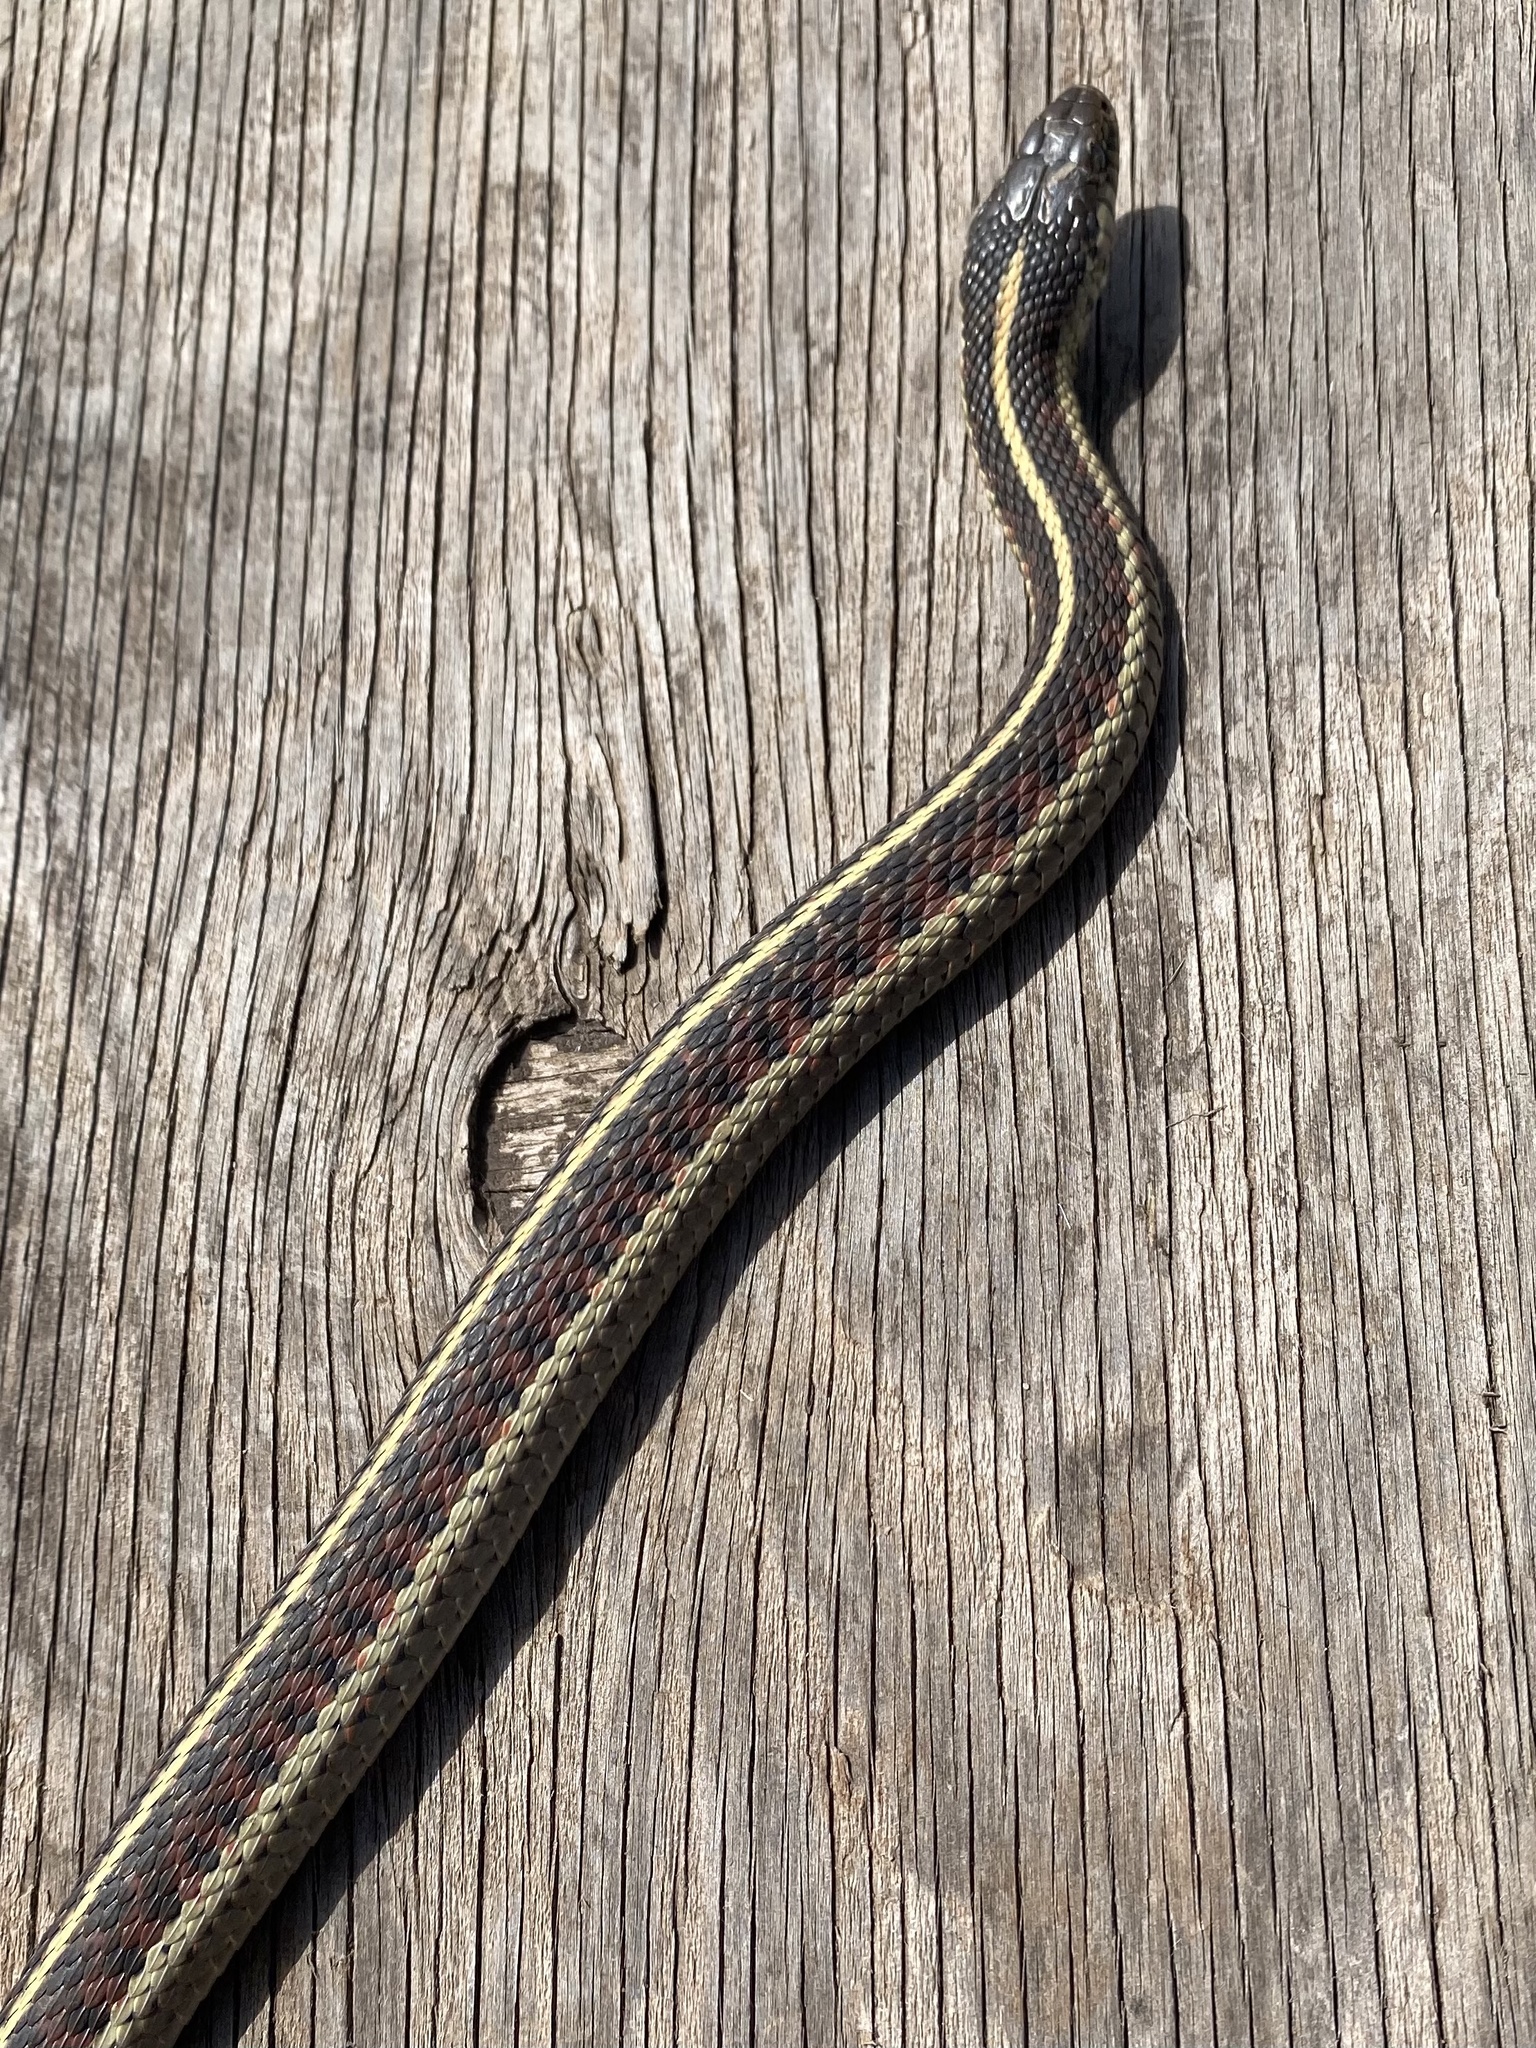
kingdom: Animalia
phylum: Chordata
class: Squamata
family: Colubridae
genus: Thamnophis
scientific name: Thamnophis elegans
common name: Western terrestrial garter snake
